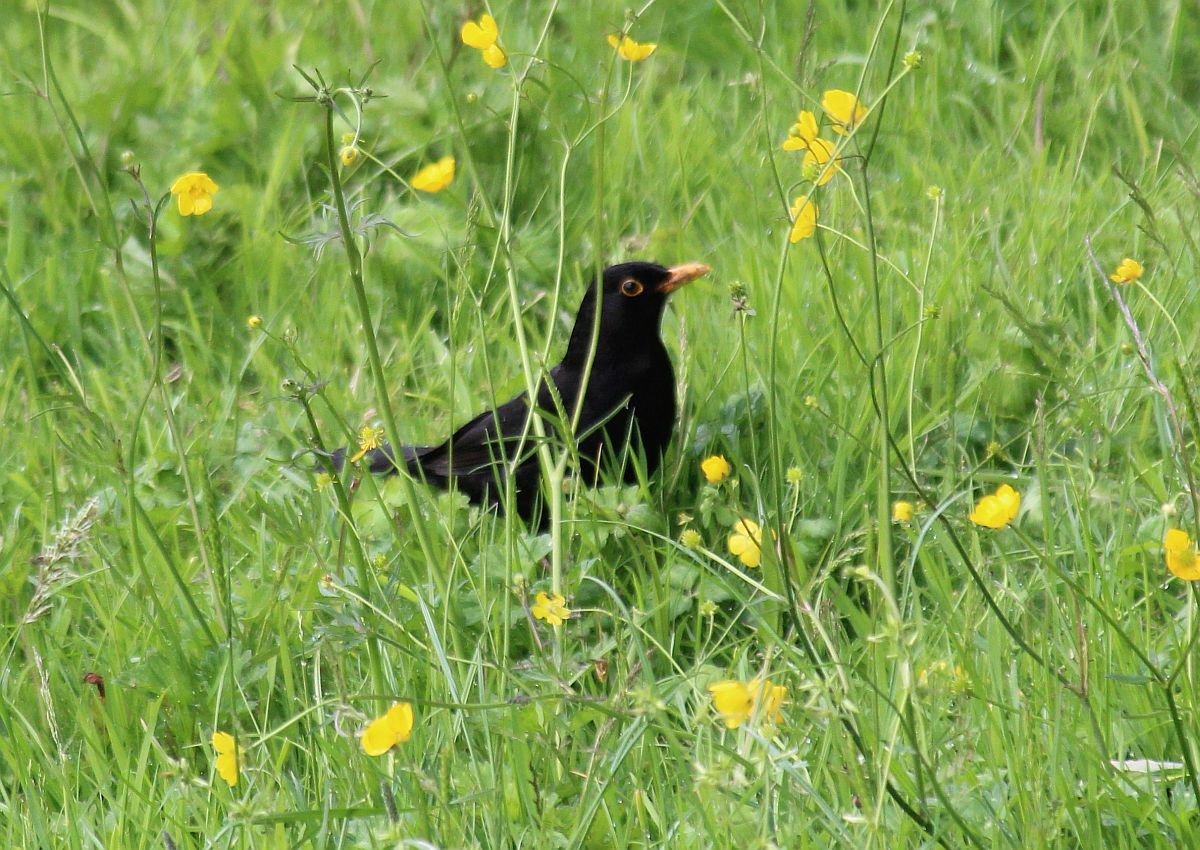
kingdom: Animalia
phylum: Chordata
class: Aves
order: Passeriformes
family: Turdidae
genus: Turdus
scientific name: Turdus merula
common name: Common blackbird
